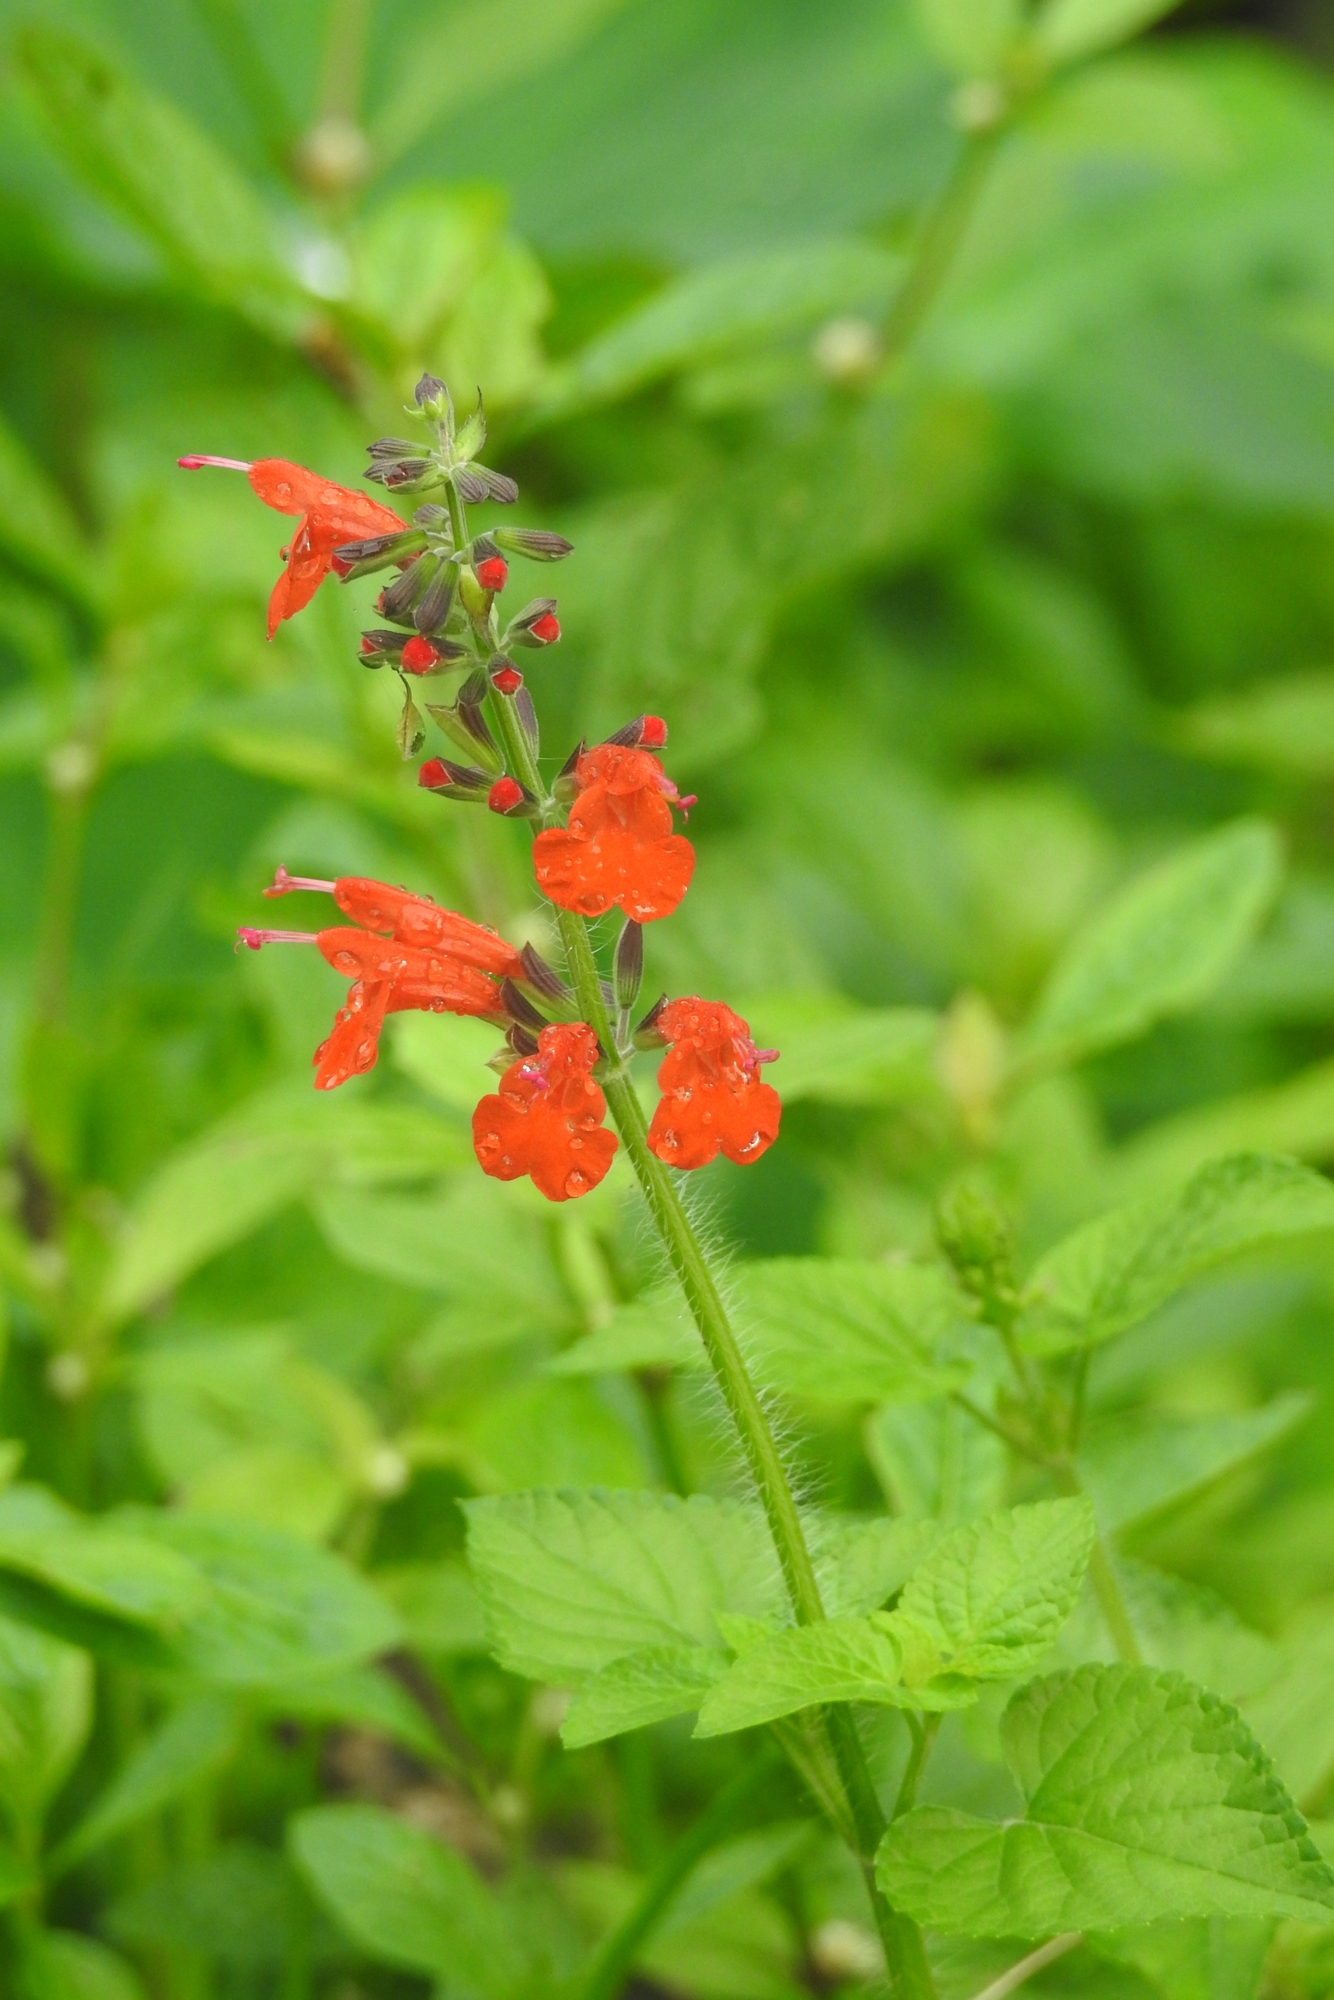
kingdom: Plantae
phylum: Tracheophyta
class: Magnoliopsida
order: Lamiales
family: Lamiaceae
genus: Salvia
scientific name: Salvia coccinea
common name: Blood sage
